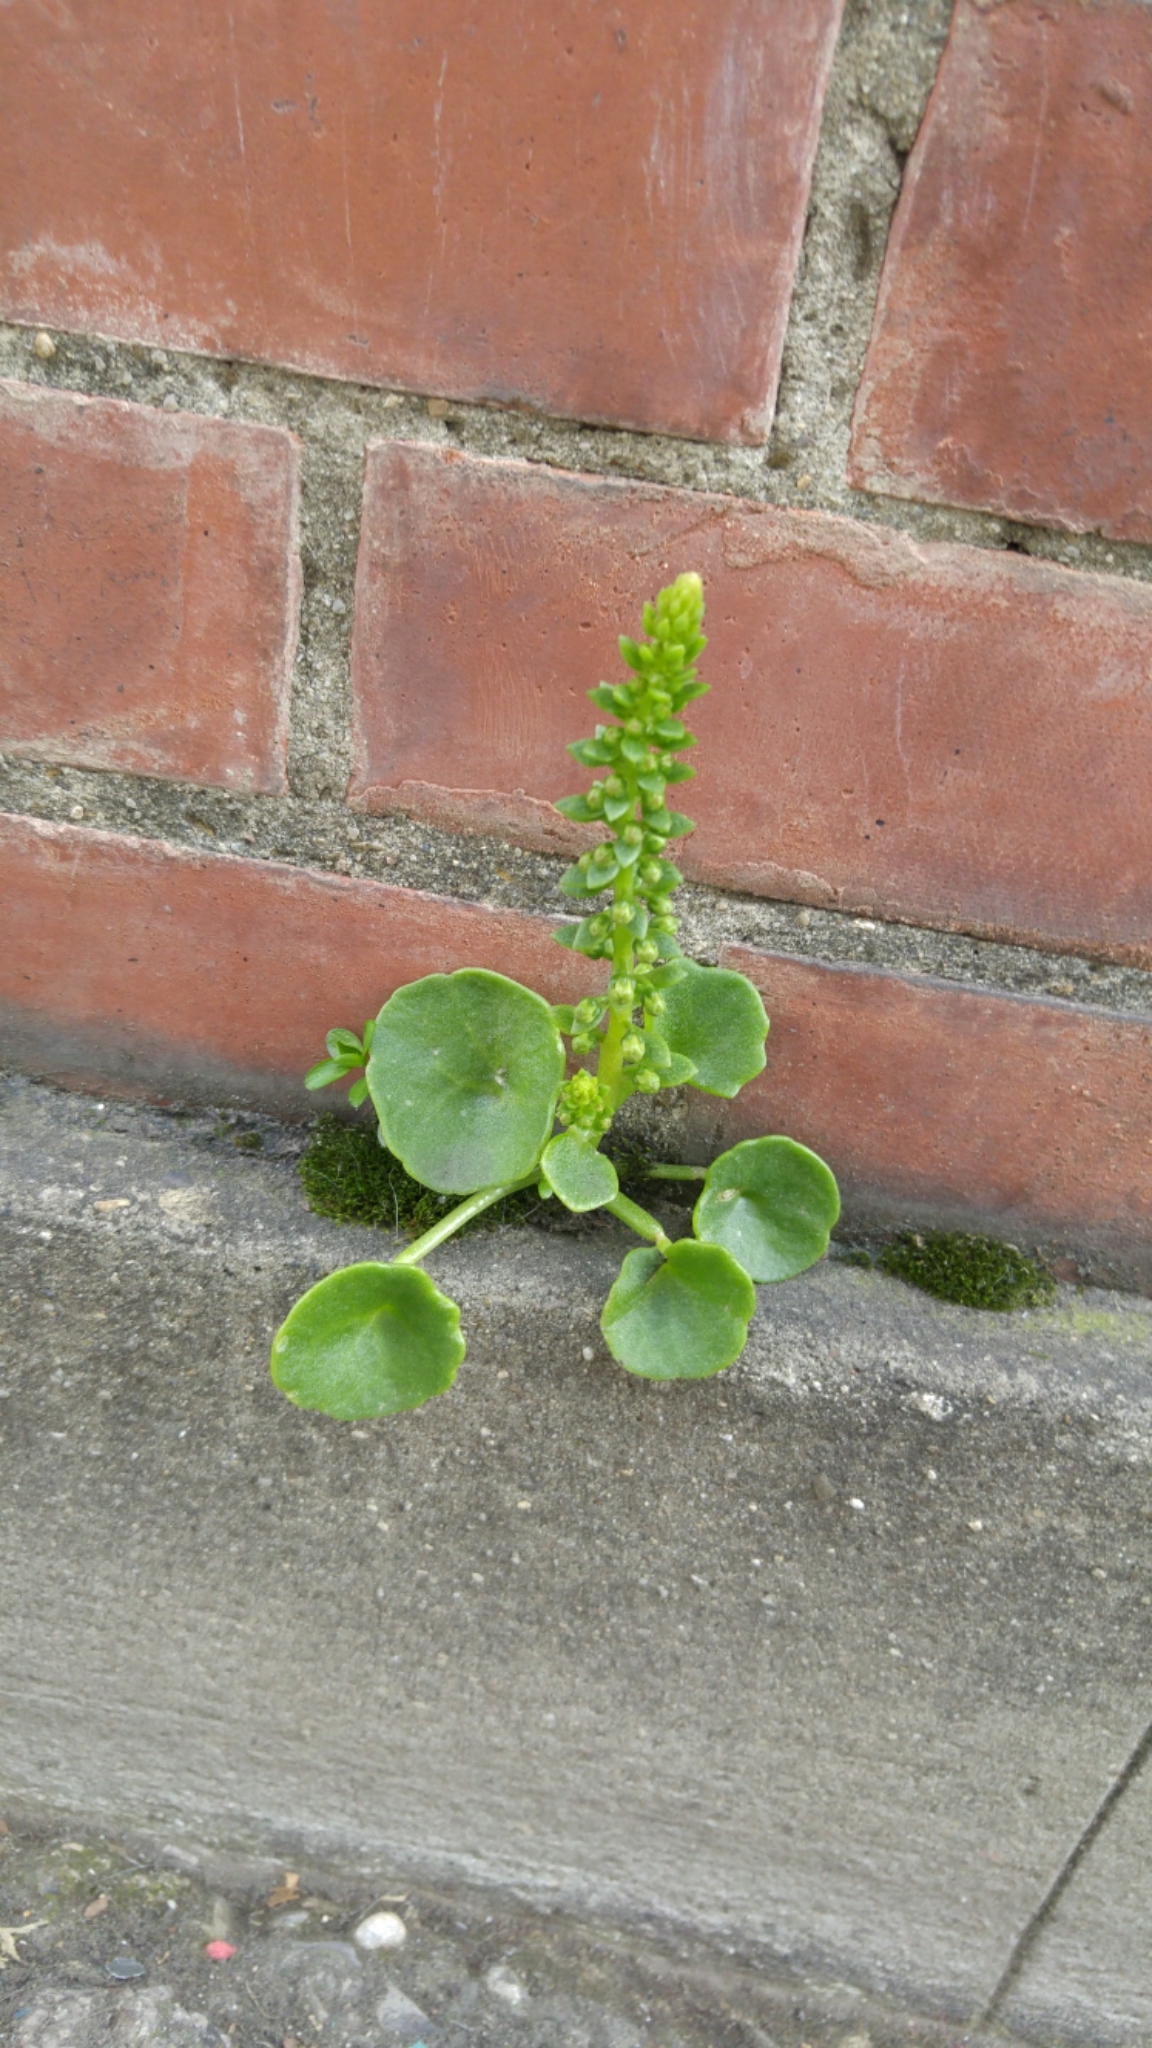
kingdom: Plantae
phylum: Tracheophyta
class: Magnoliopsida
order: Saxifragales
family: Crassulaceae
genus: Umbilicus
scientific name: Umbilicus rupestris
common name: Navelwort
